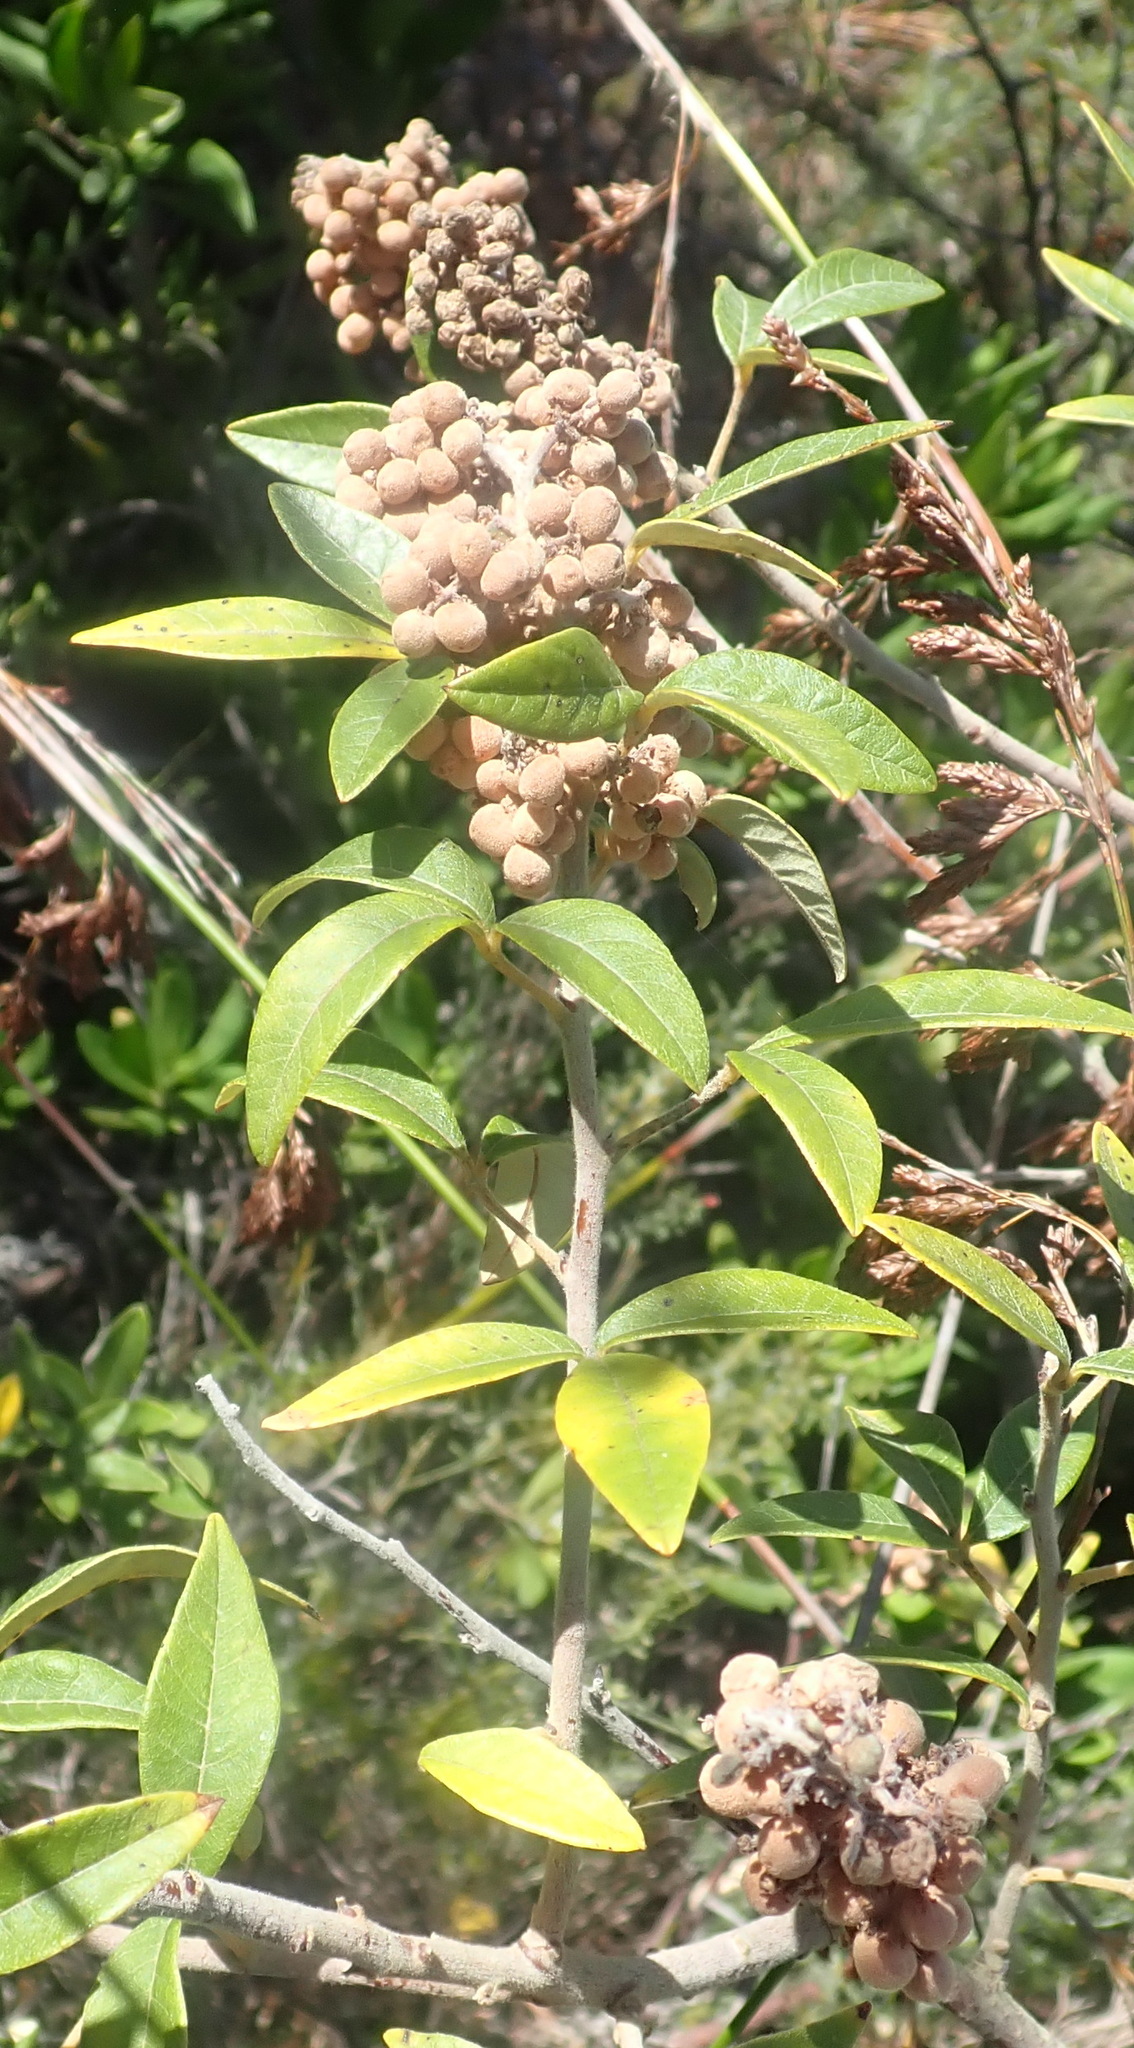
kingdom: Plantae
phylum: Tracheophyta
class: Magnoliopsida
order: Sapindales
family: Anacardiaceae
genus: Searsia
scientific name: Searsia tomentosa
